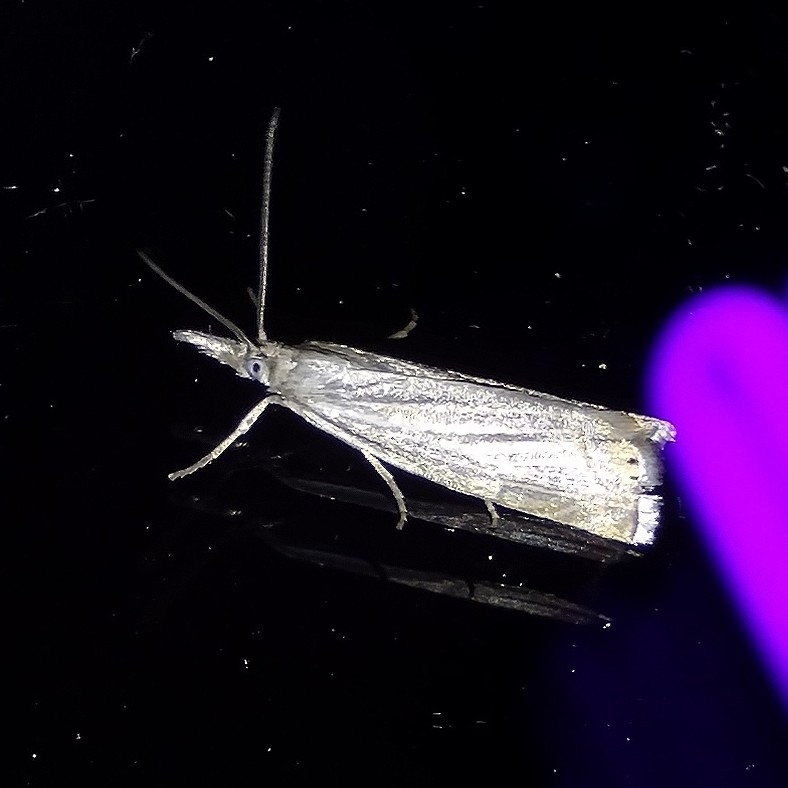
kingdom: Animalia
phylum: Arthropoda
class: Insecta
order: Lepidoptera
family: Crambidae
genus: Chrysoteuchia
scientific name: Chrysoteuchia culmella
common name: Garden grass-veneer
